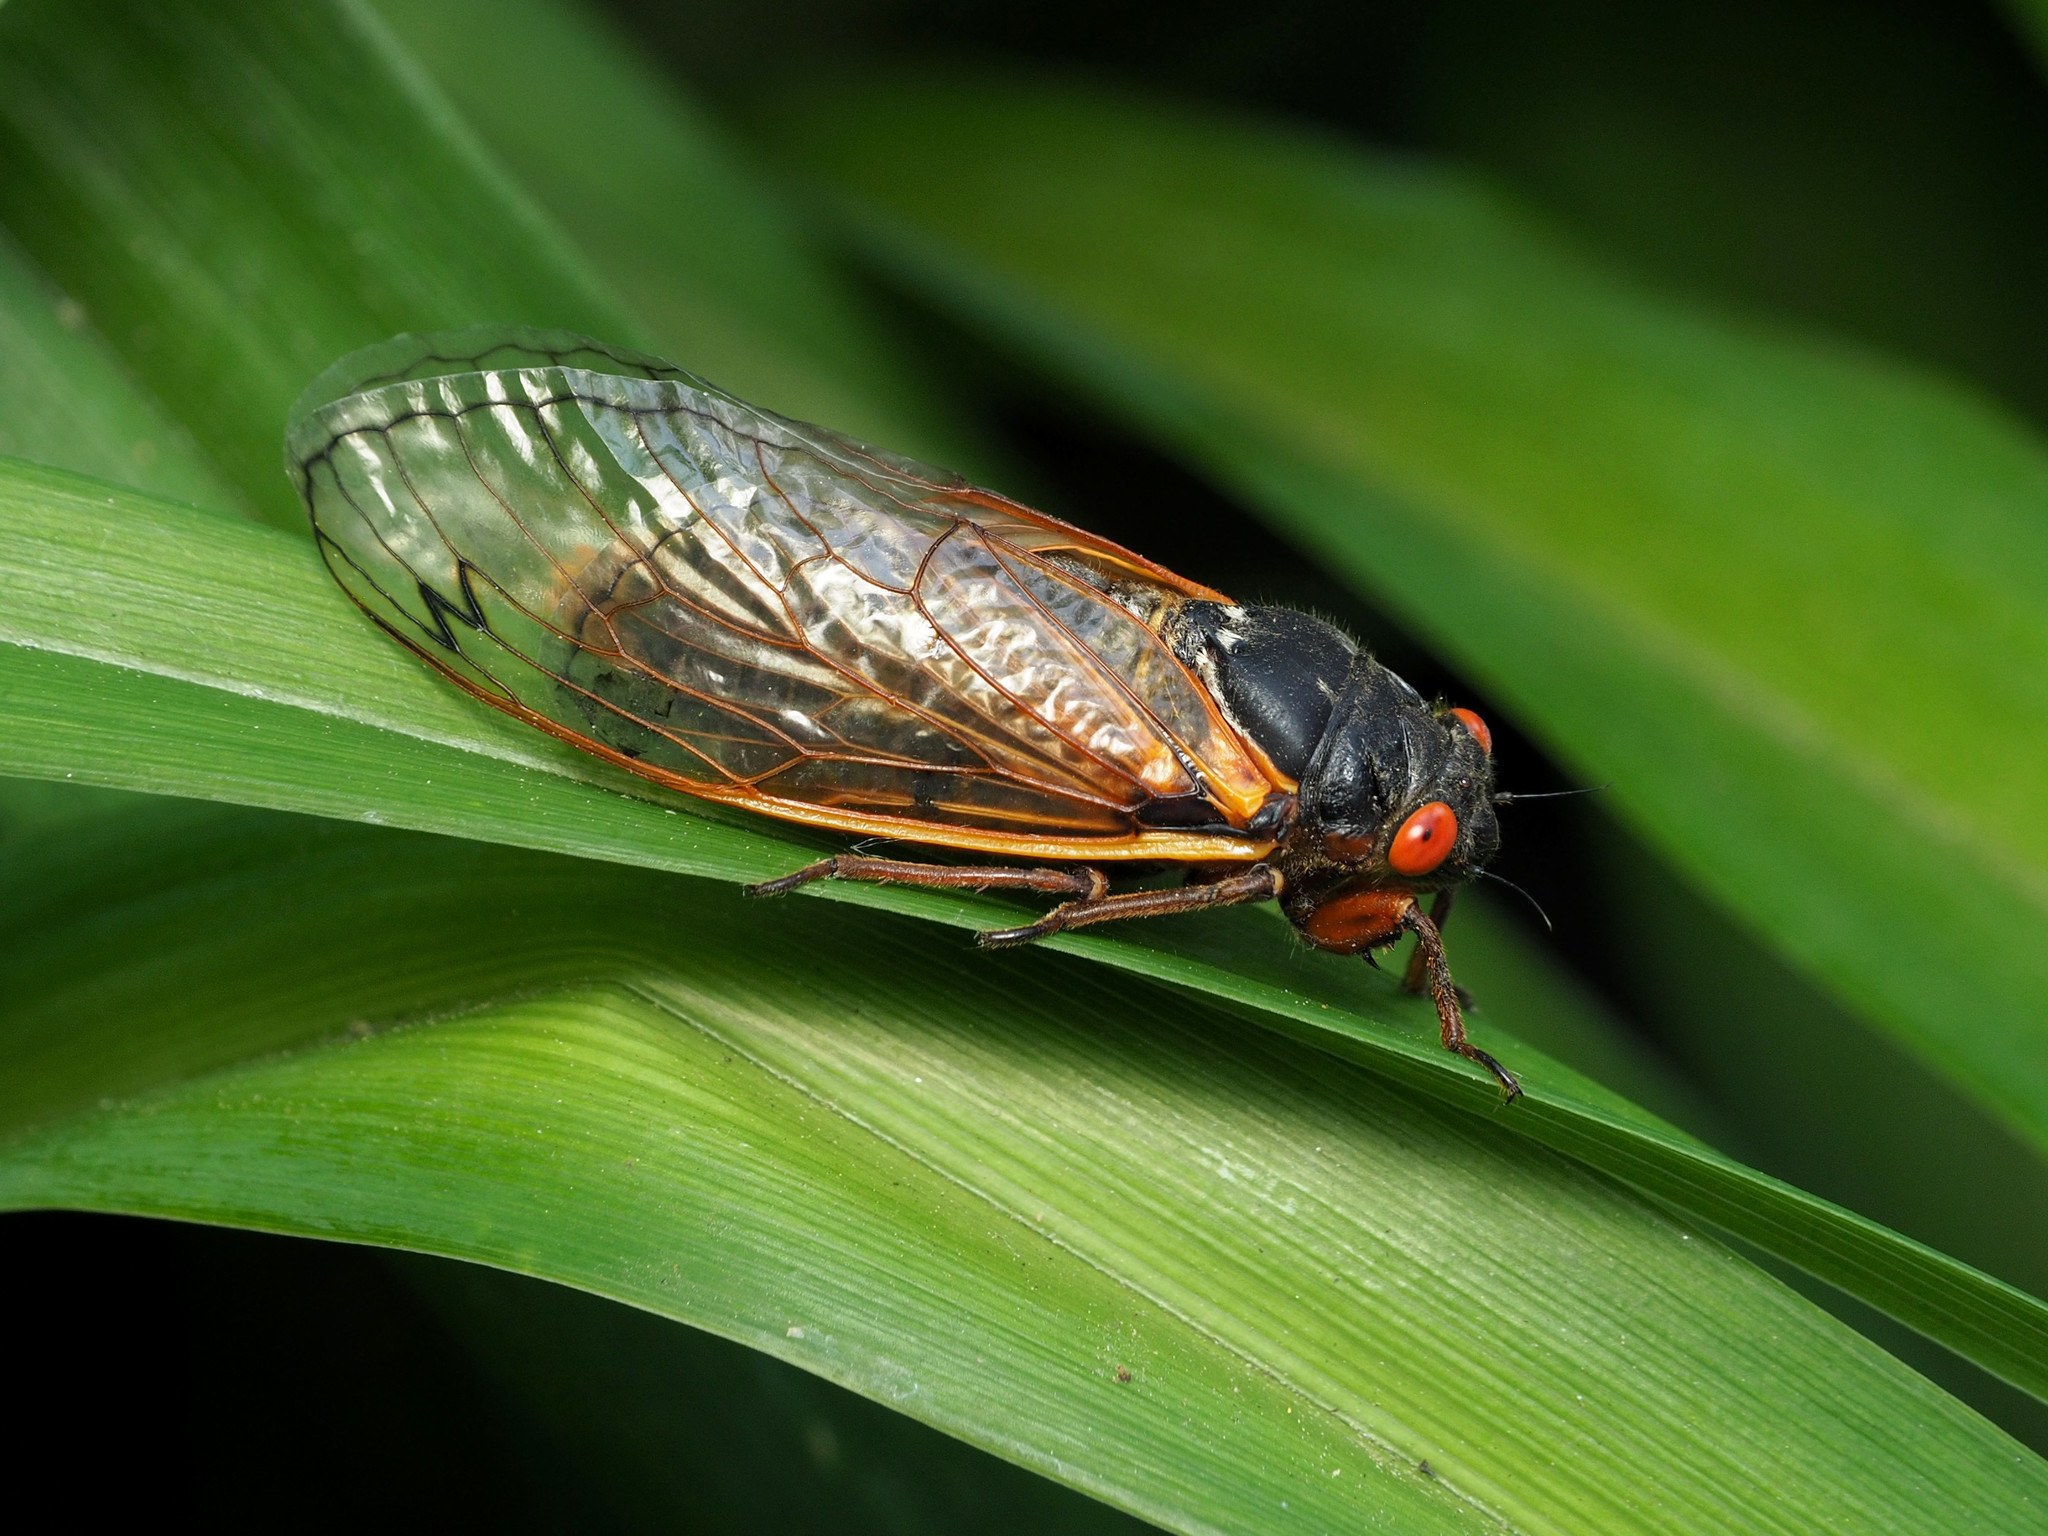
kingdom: Animalia
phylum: Arthropoda
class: Insecta
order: Hemiptera
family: Cicadidae
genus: Magicicada
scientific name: Magicicada septendecim
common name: Periodical cicada
